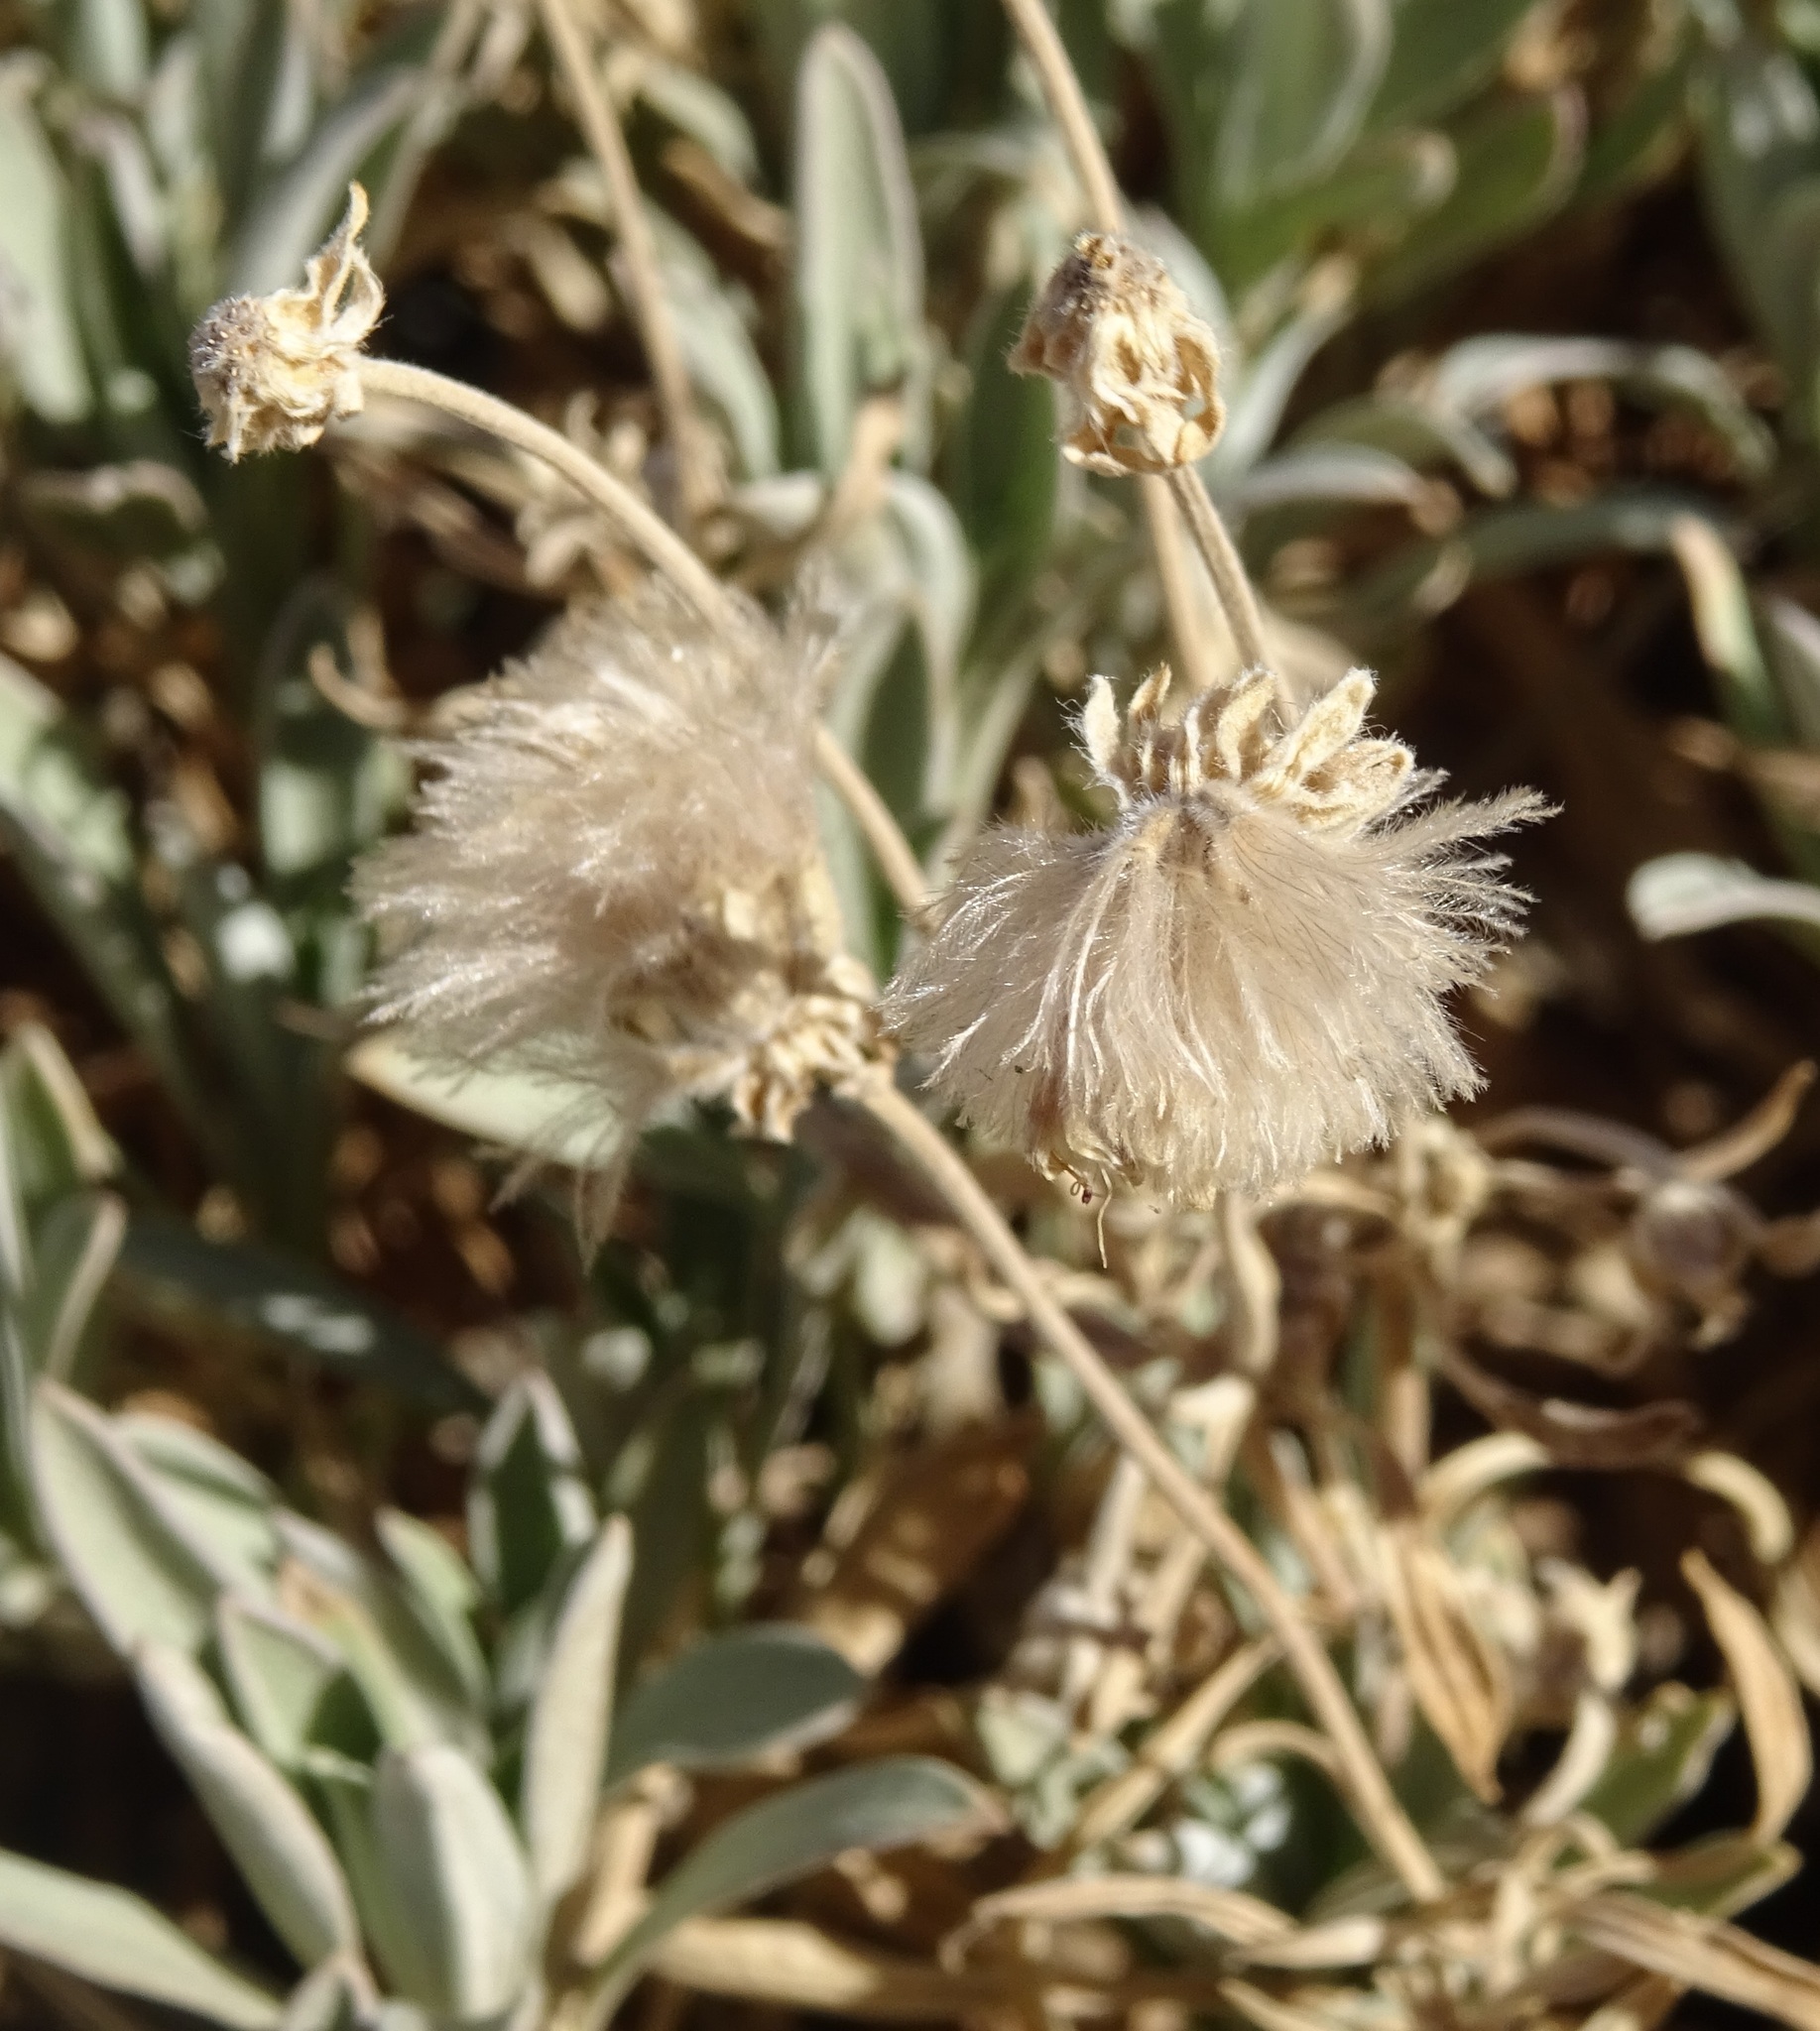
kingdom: Plantae
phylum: Tracheophyta
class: Magnoliopsida
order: Dipsacales
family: Caprifoliaceae
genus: Pterocephalus
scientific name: Pterocephalus lasiospermus
